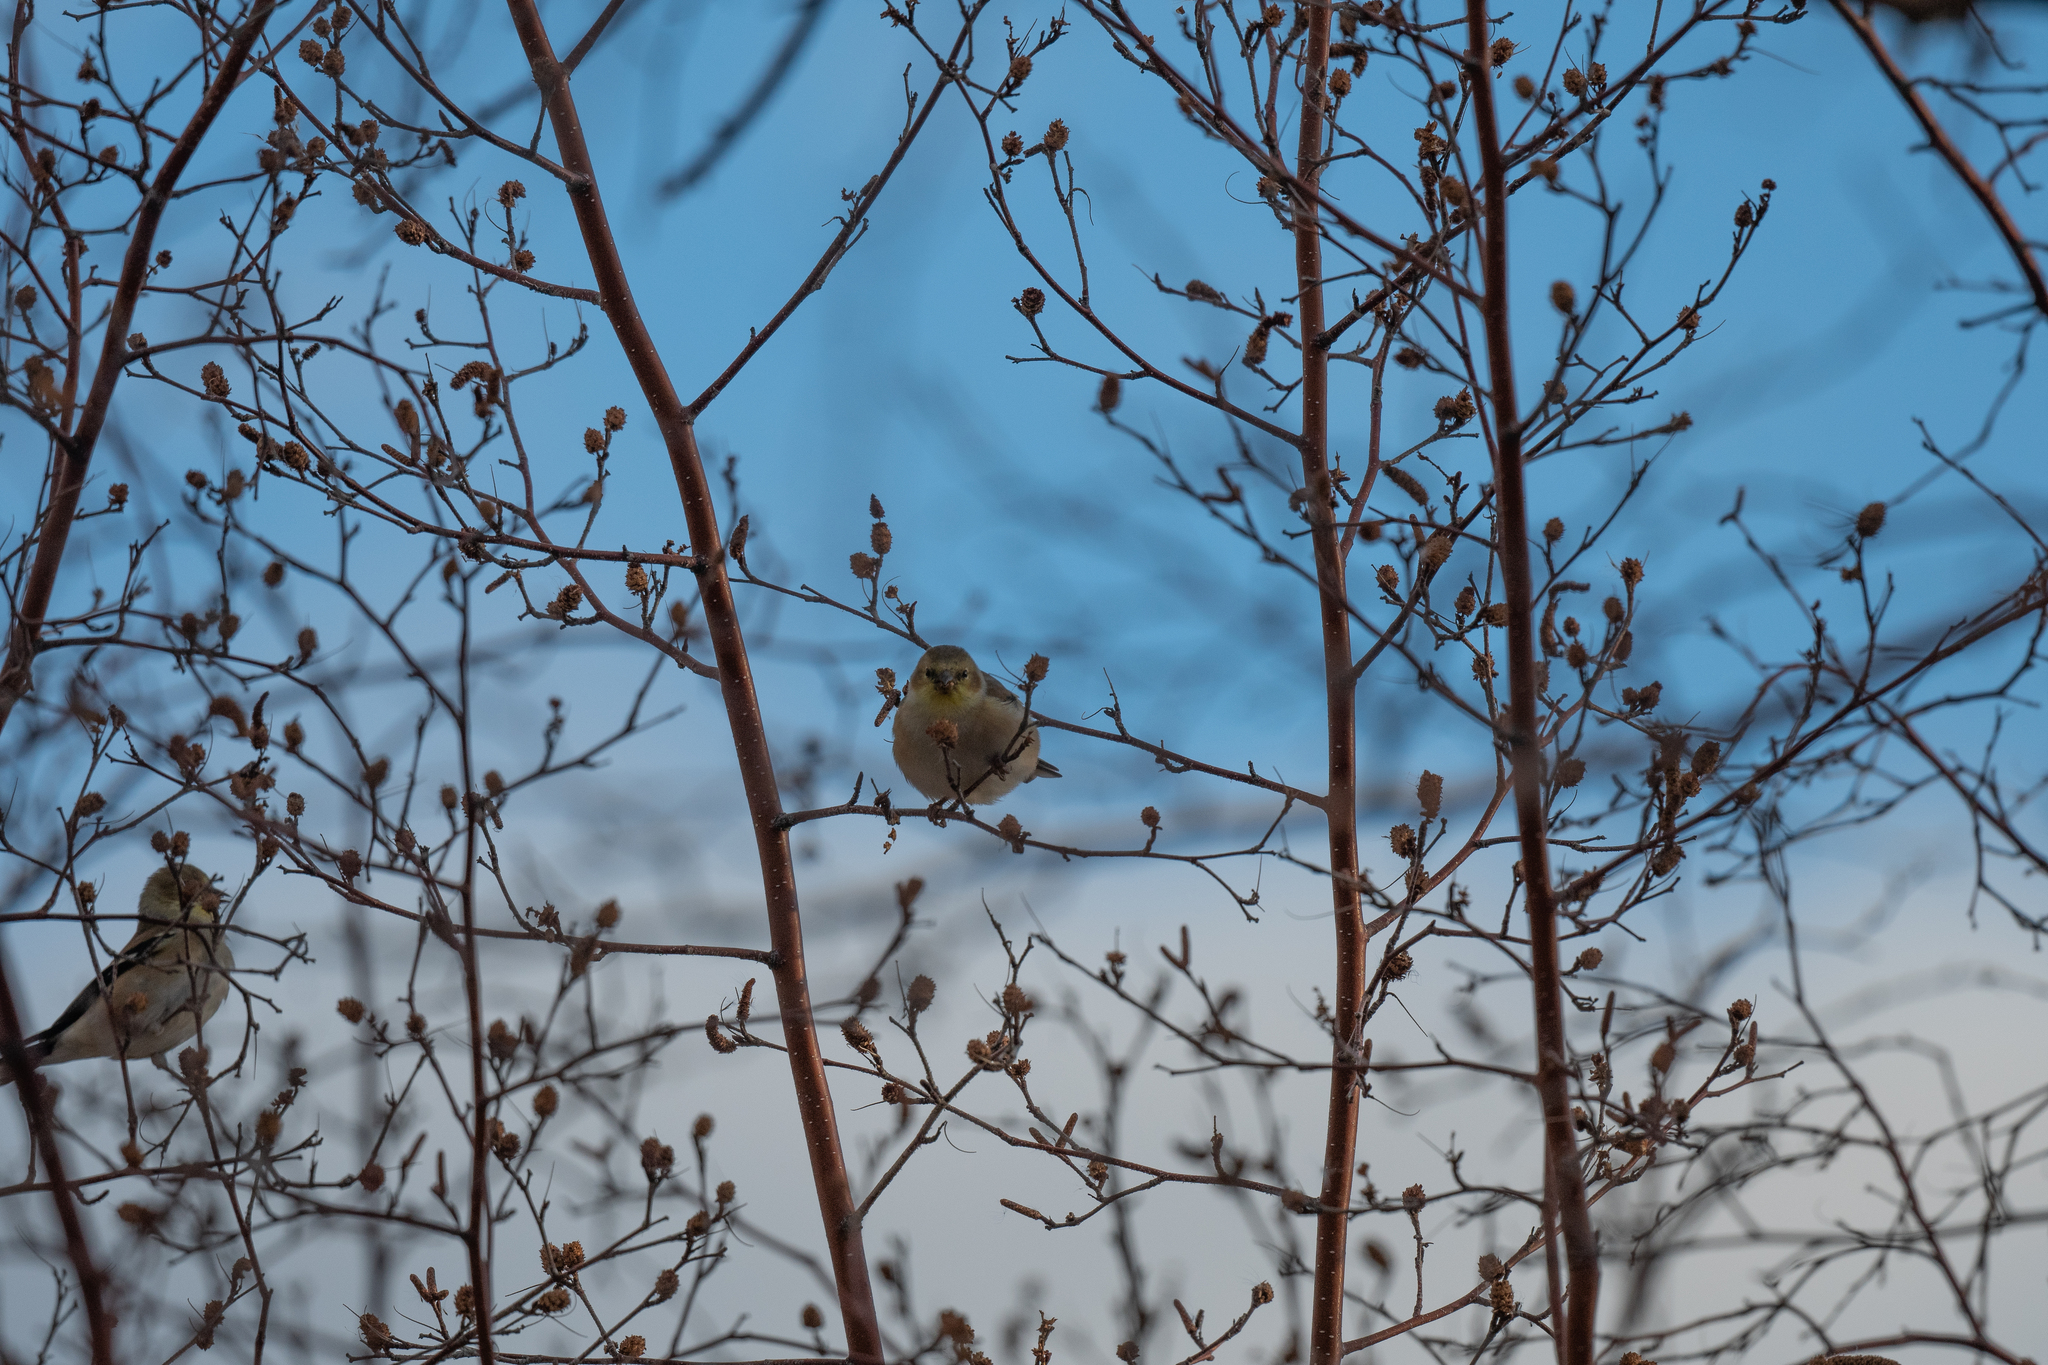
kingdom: Animalia
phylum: Chordata
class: Aves
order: Passeriformes
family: Fringillidae
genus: Spinus
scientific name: Spinus tristis
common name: American goldfinch
